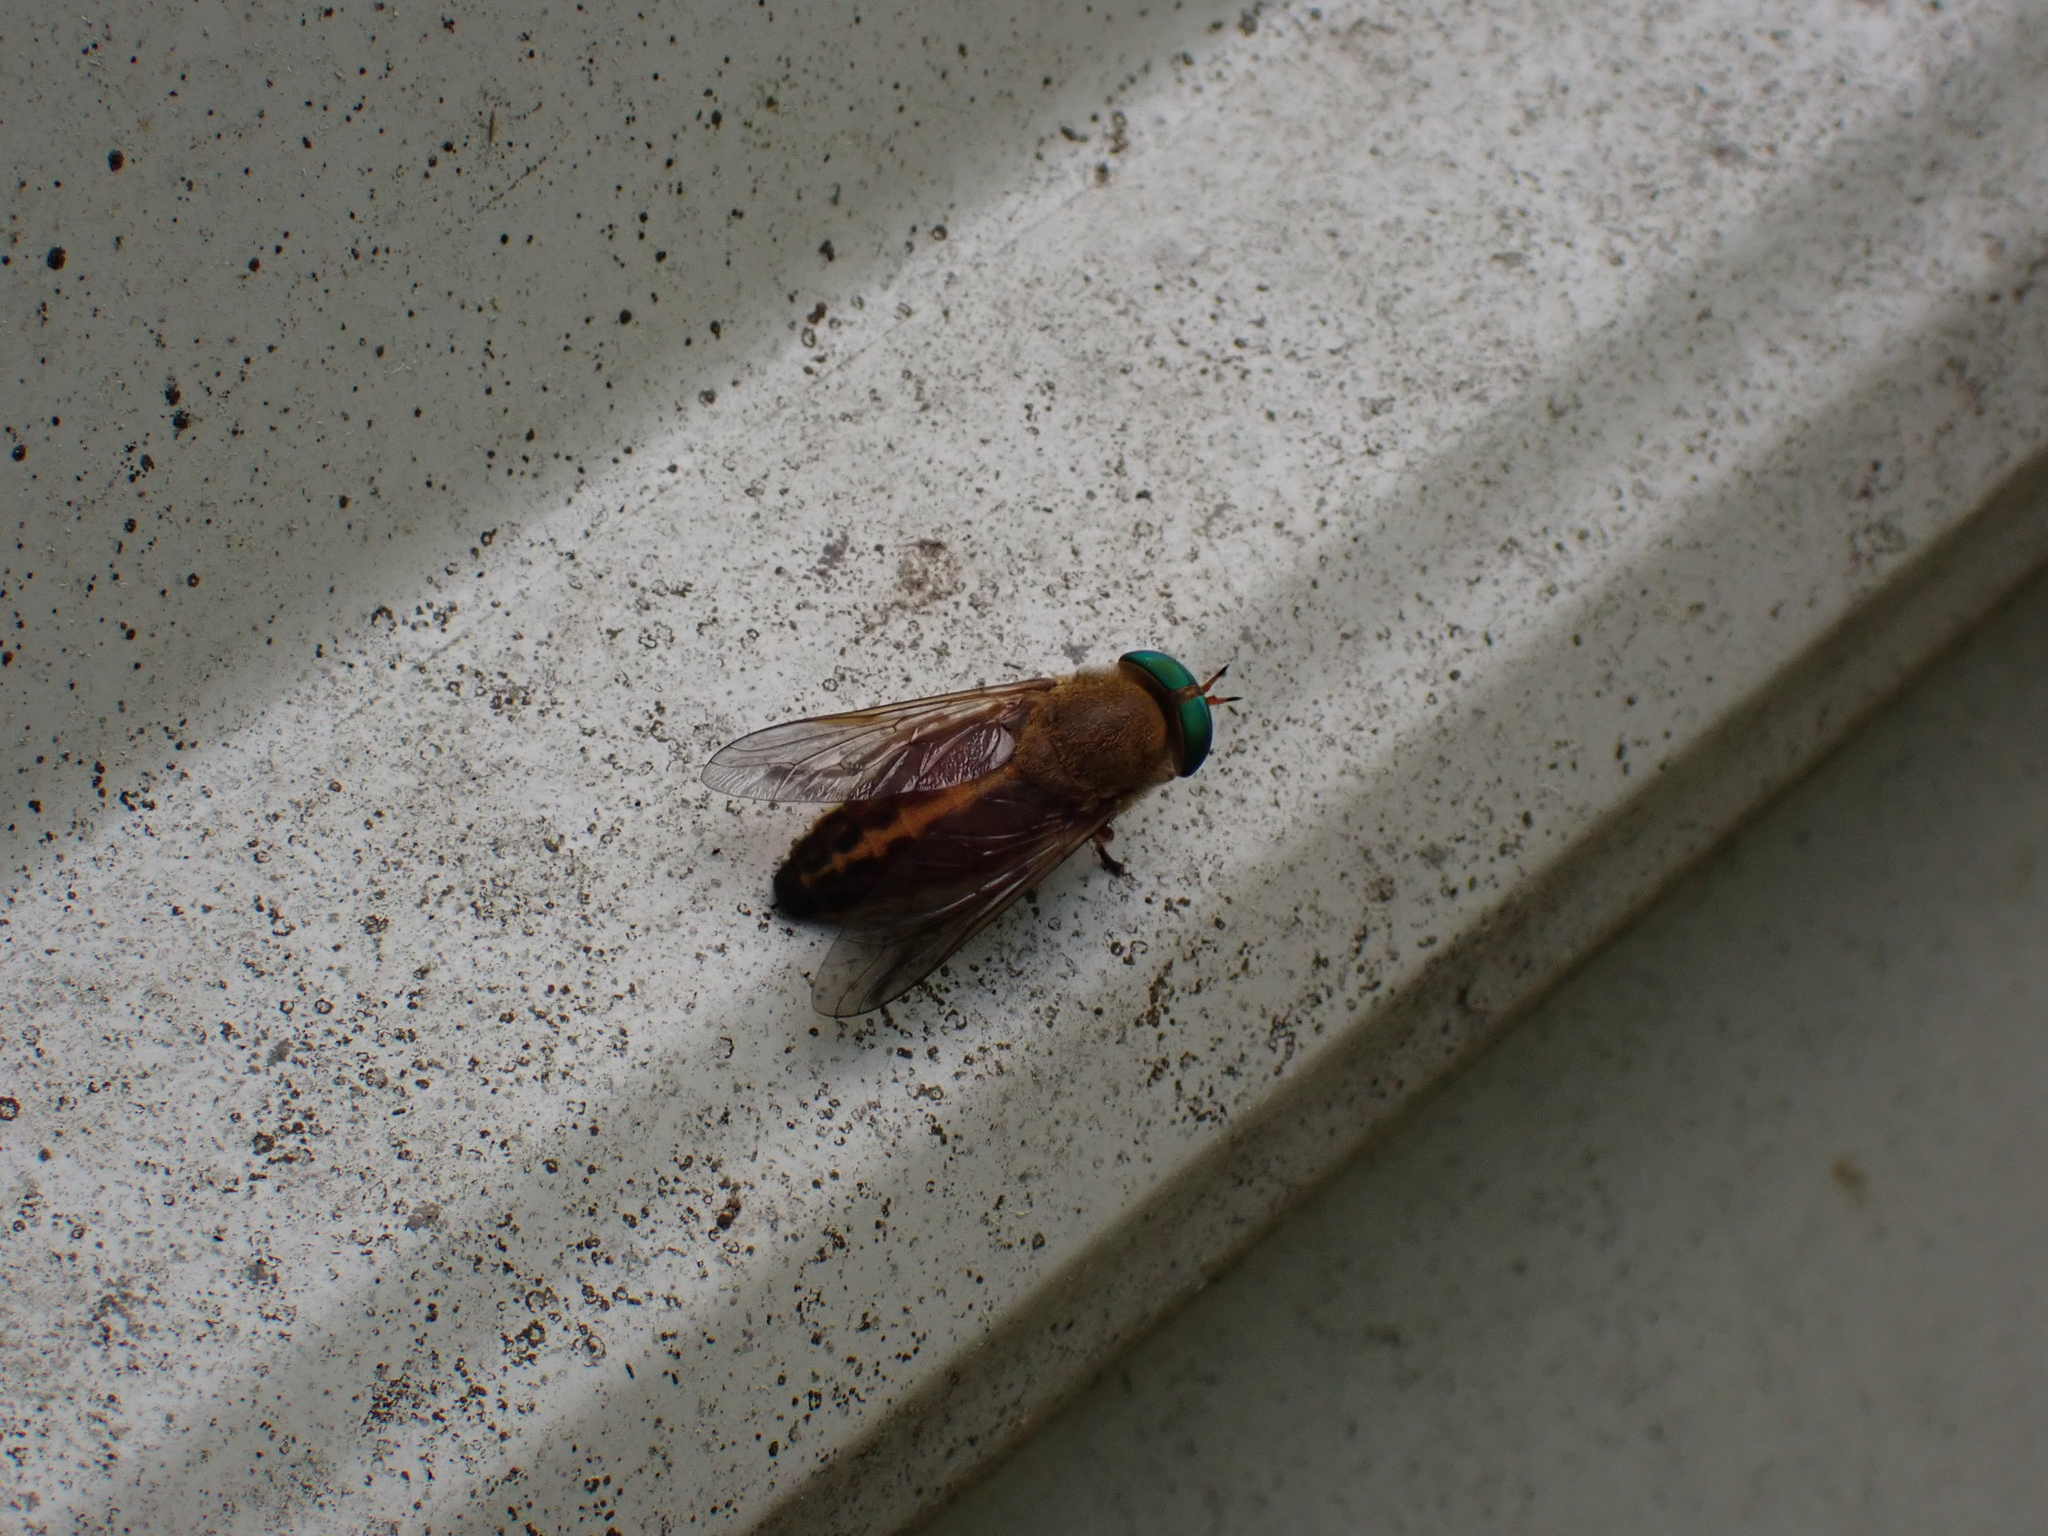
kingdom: Animalia
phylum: Arthropoda
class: Insecta
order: Diptera
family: Tabanidae
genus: Tabanus
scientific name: Tabanus fulvulus
